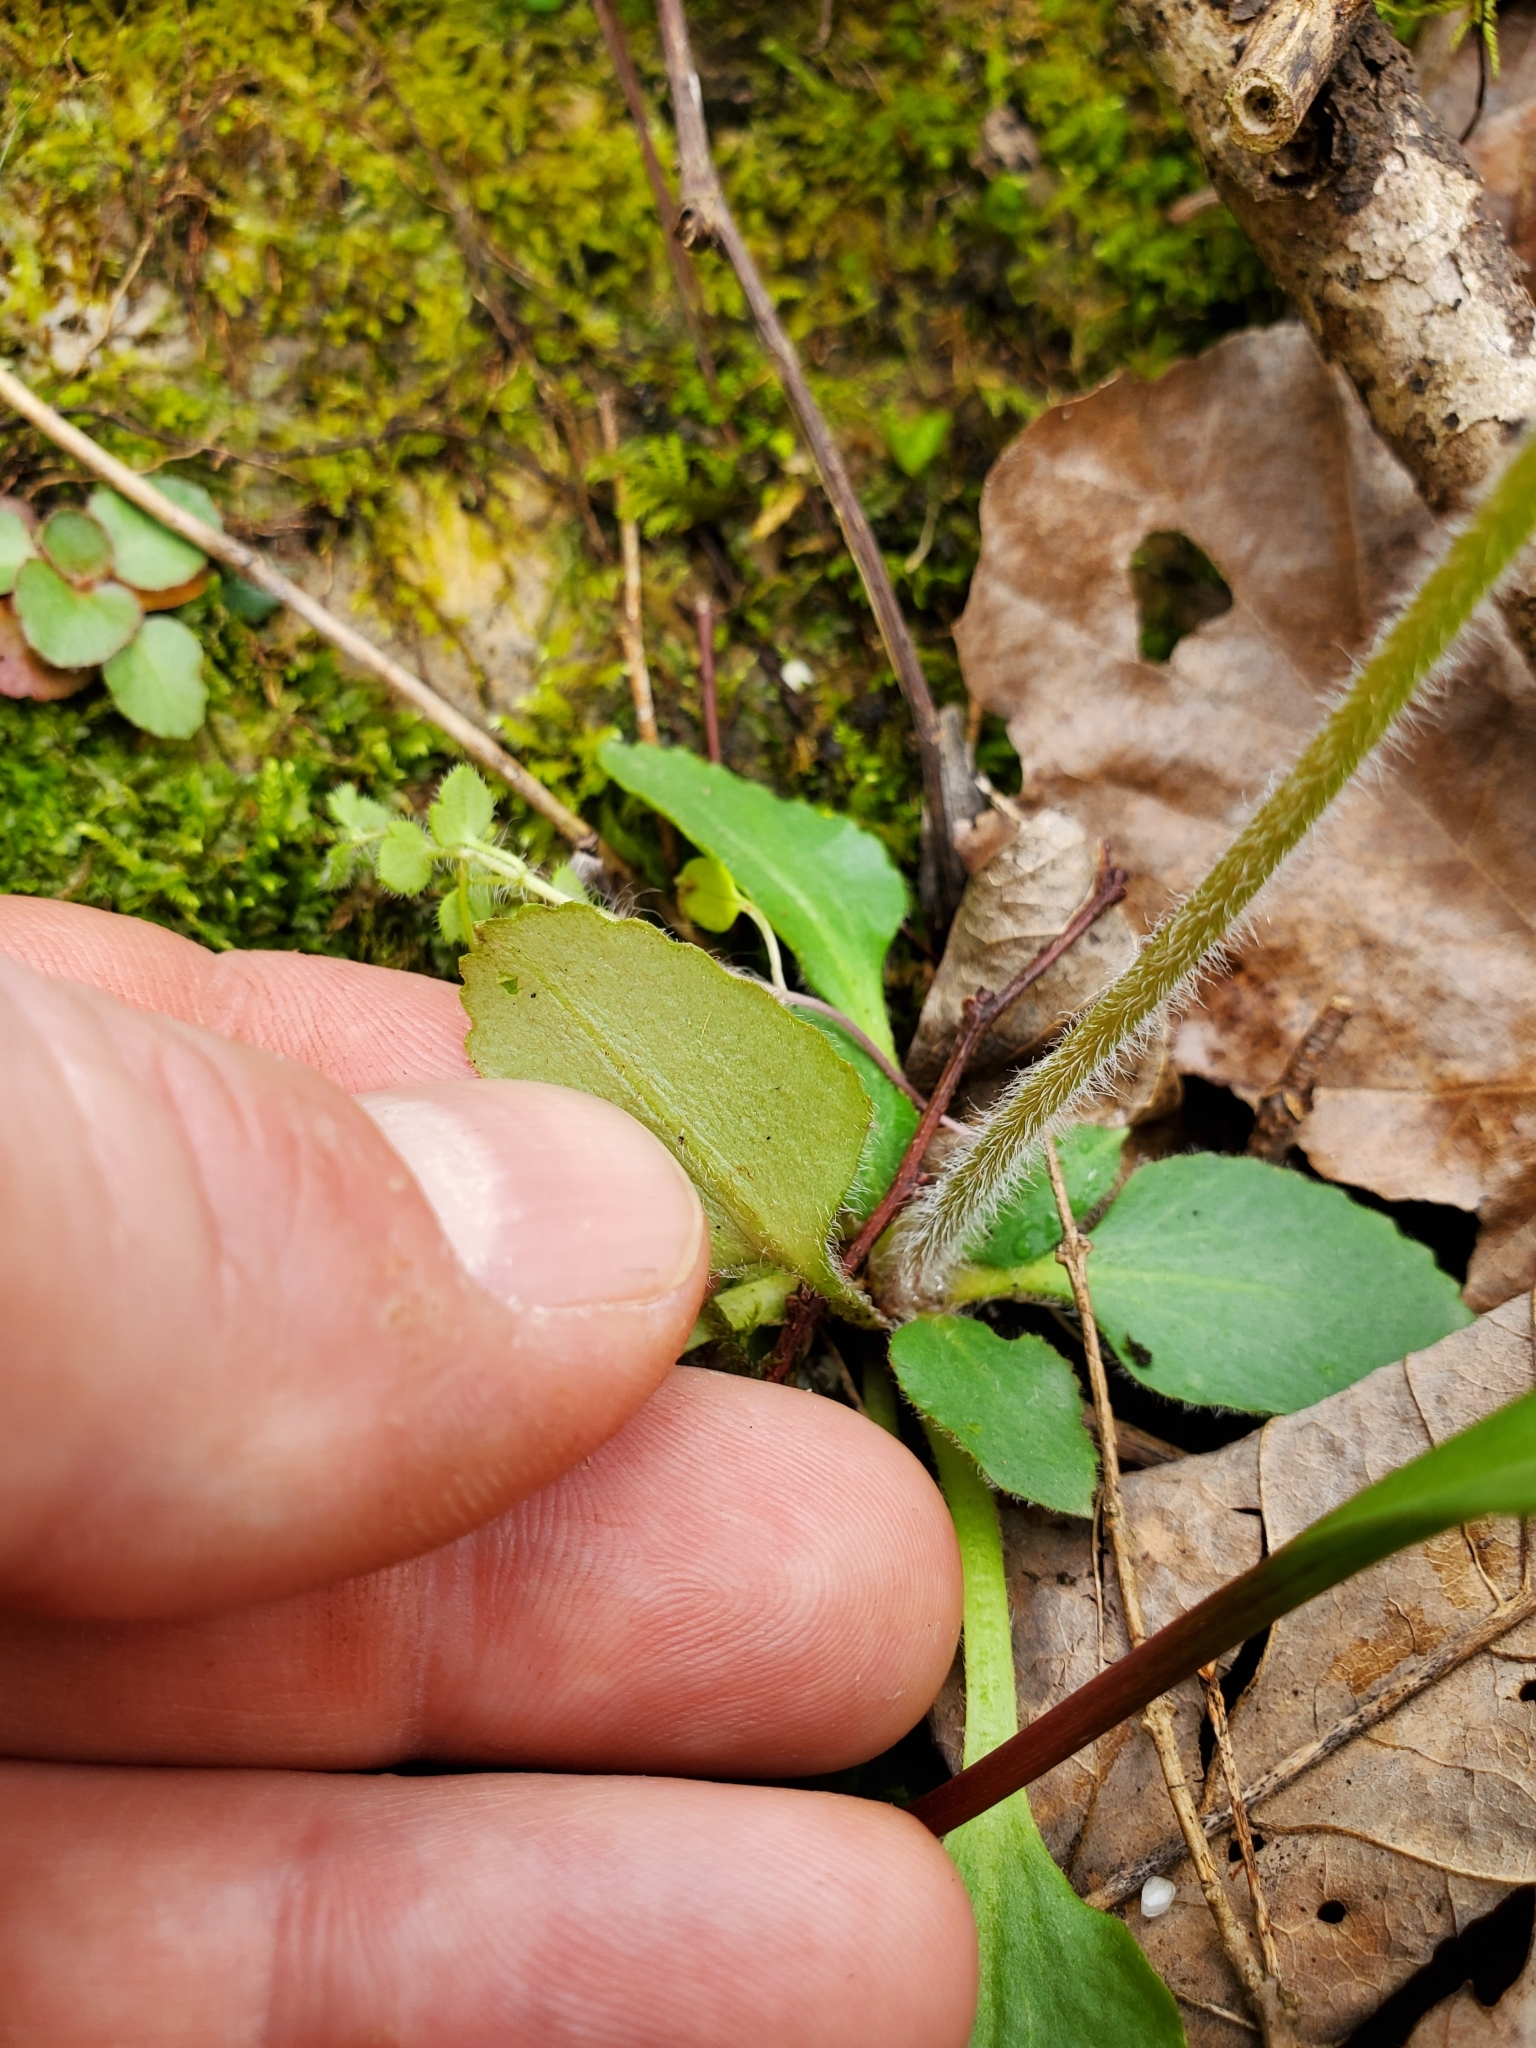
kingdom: Plantae
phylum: Tracheophyta
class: Magnoliopsida
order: Saxifragales
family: Saxifragaceae
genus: Micranthes
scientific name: Micranthes virginiensis
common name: Early saxifrage
